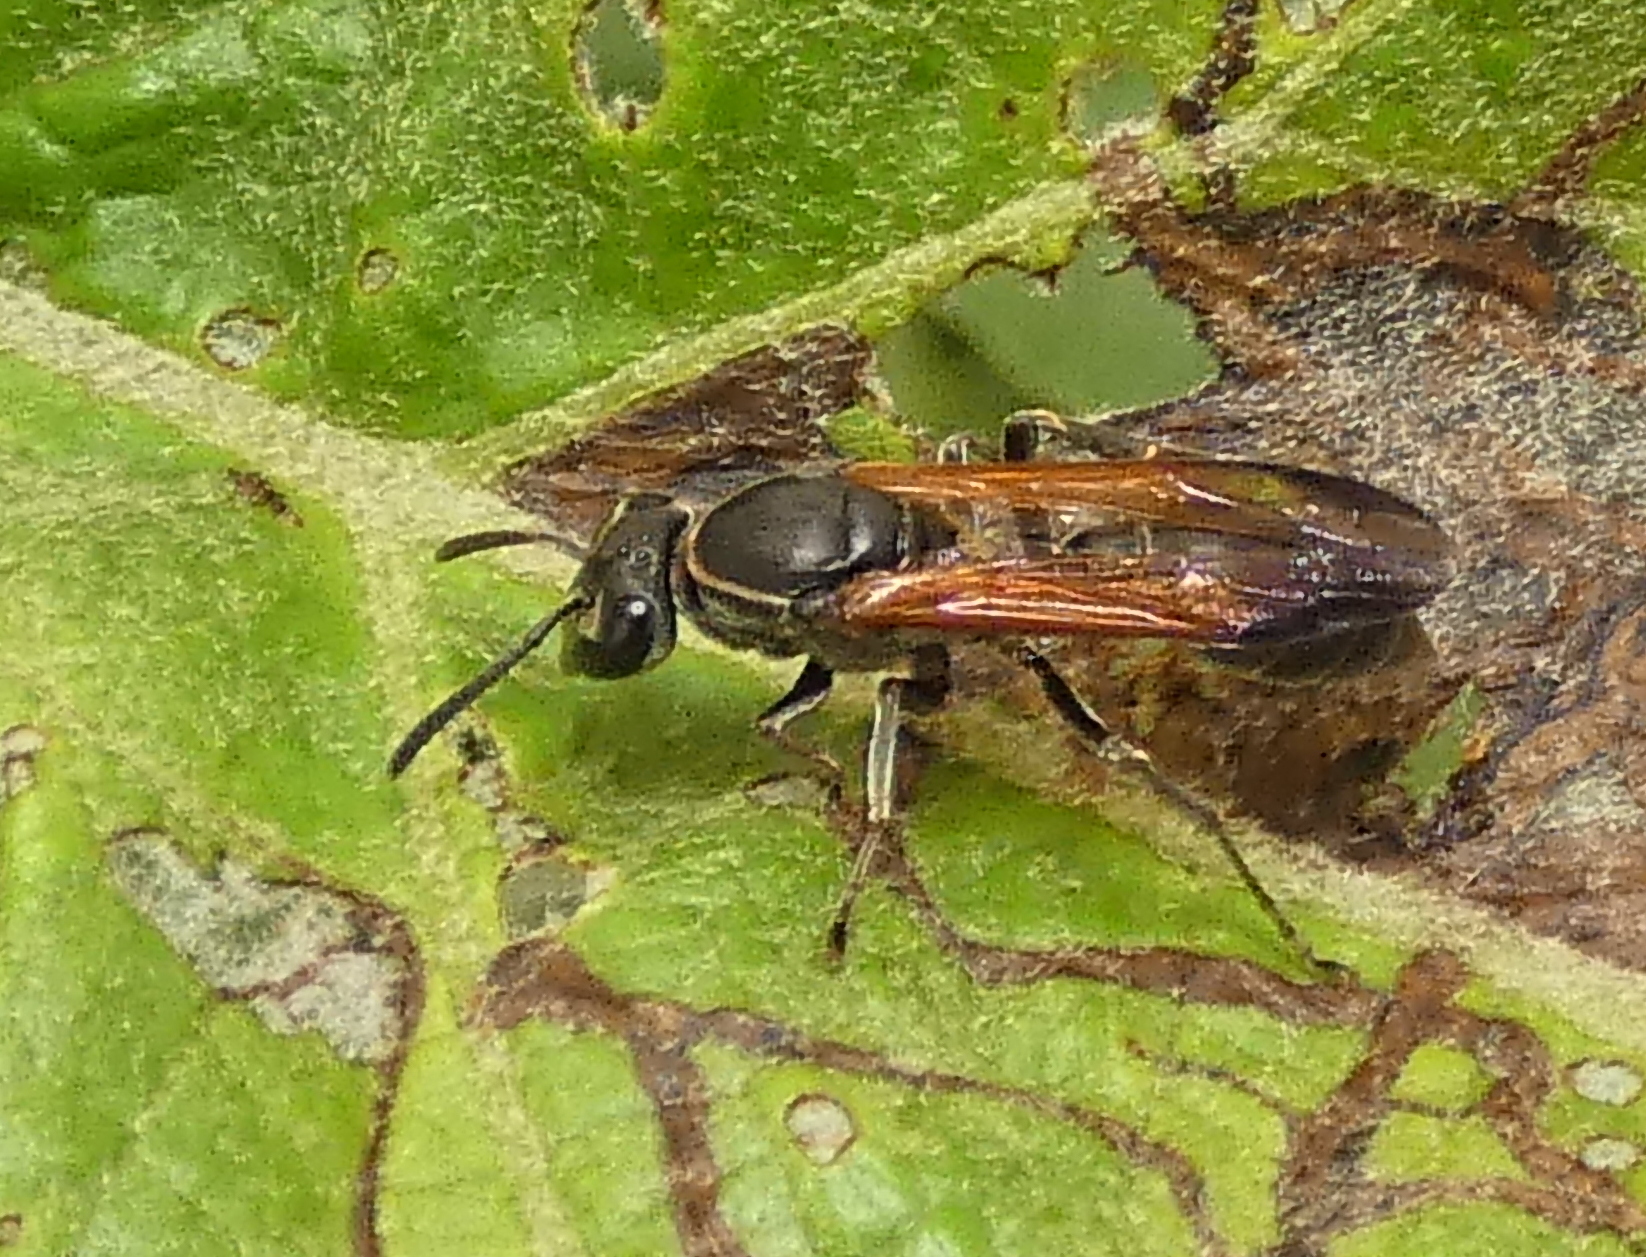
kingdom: Animalia
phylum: Arthropoda
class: Insecta
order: Hymenoptera
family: Eumenidae
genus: Polybia
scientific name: Polybia rejecta
